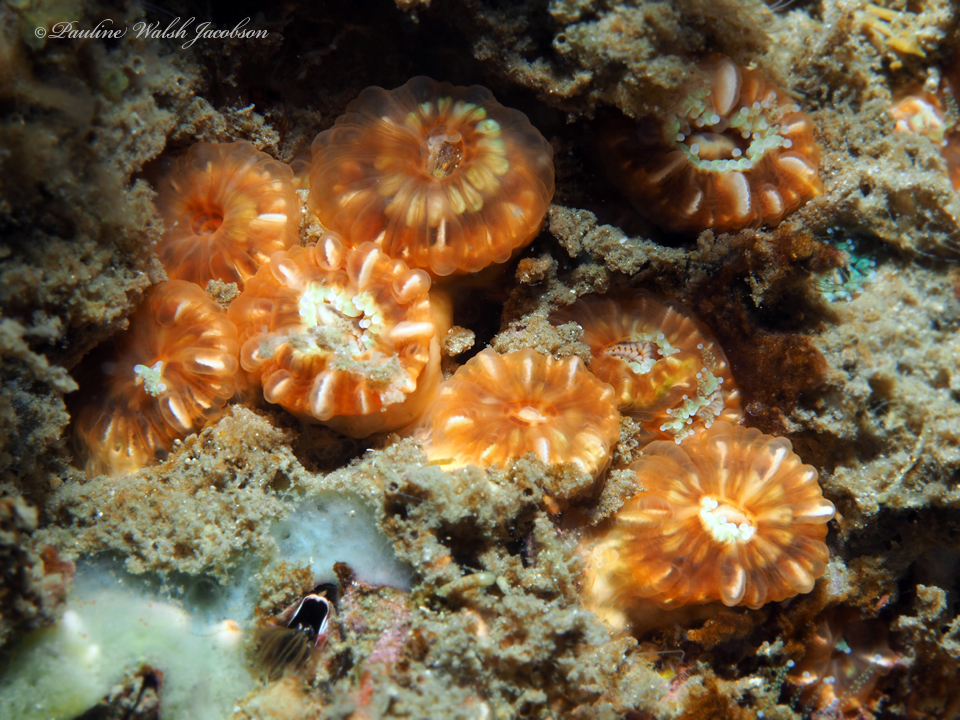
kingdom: Animalia
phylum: Cnidaria
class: Anthozoa
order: Scleractinia
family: Caryophylliidae
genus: Phyllangia
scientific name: Phyllangia americana
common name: Hidden cup coral
